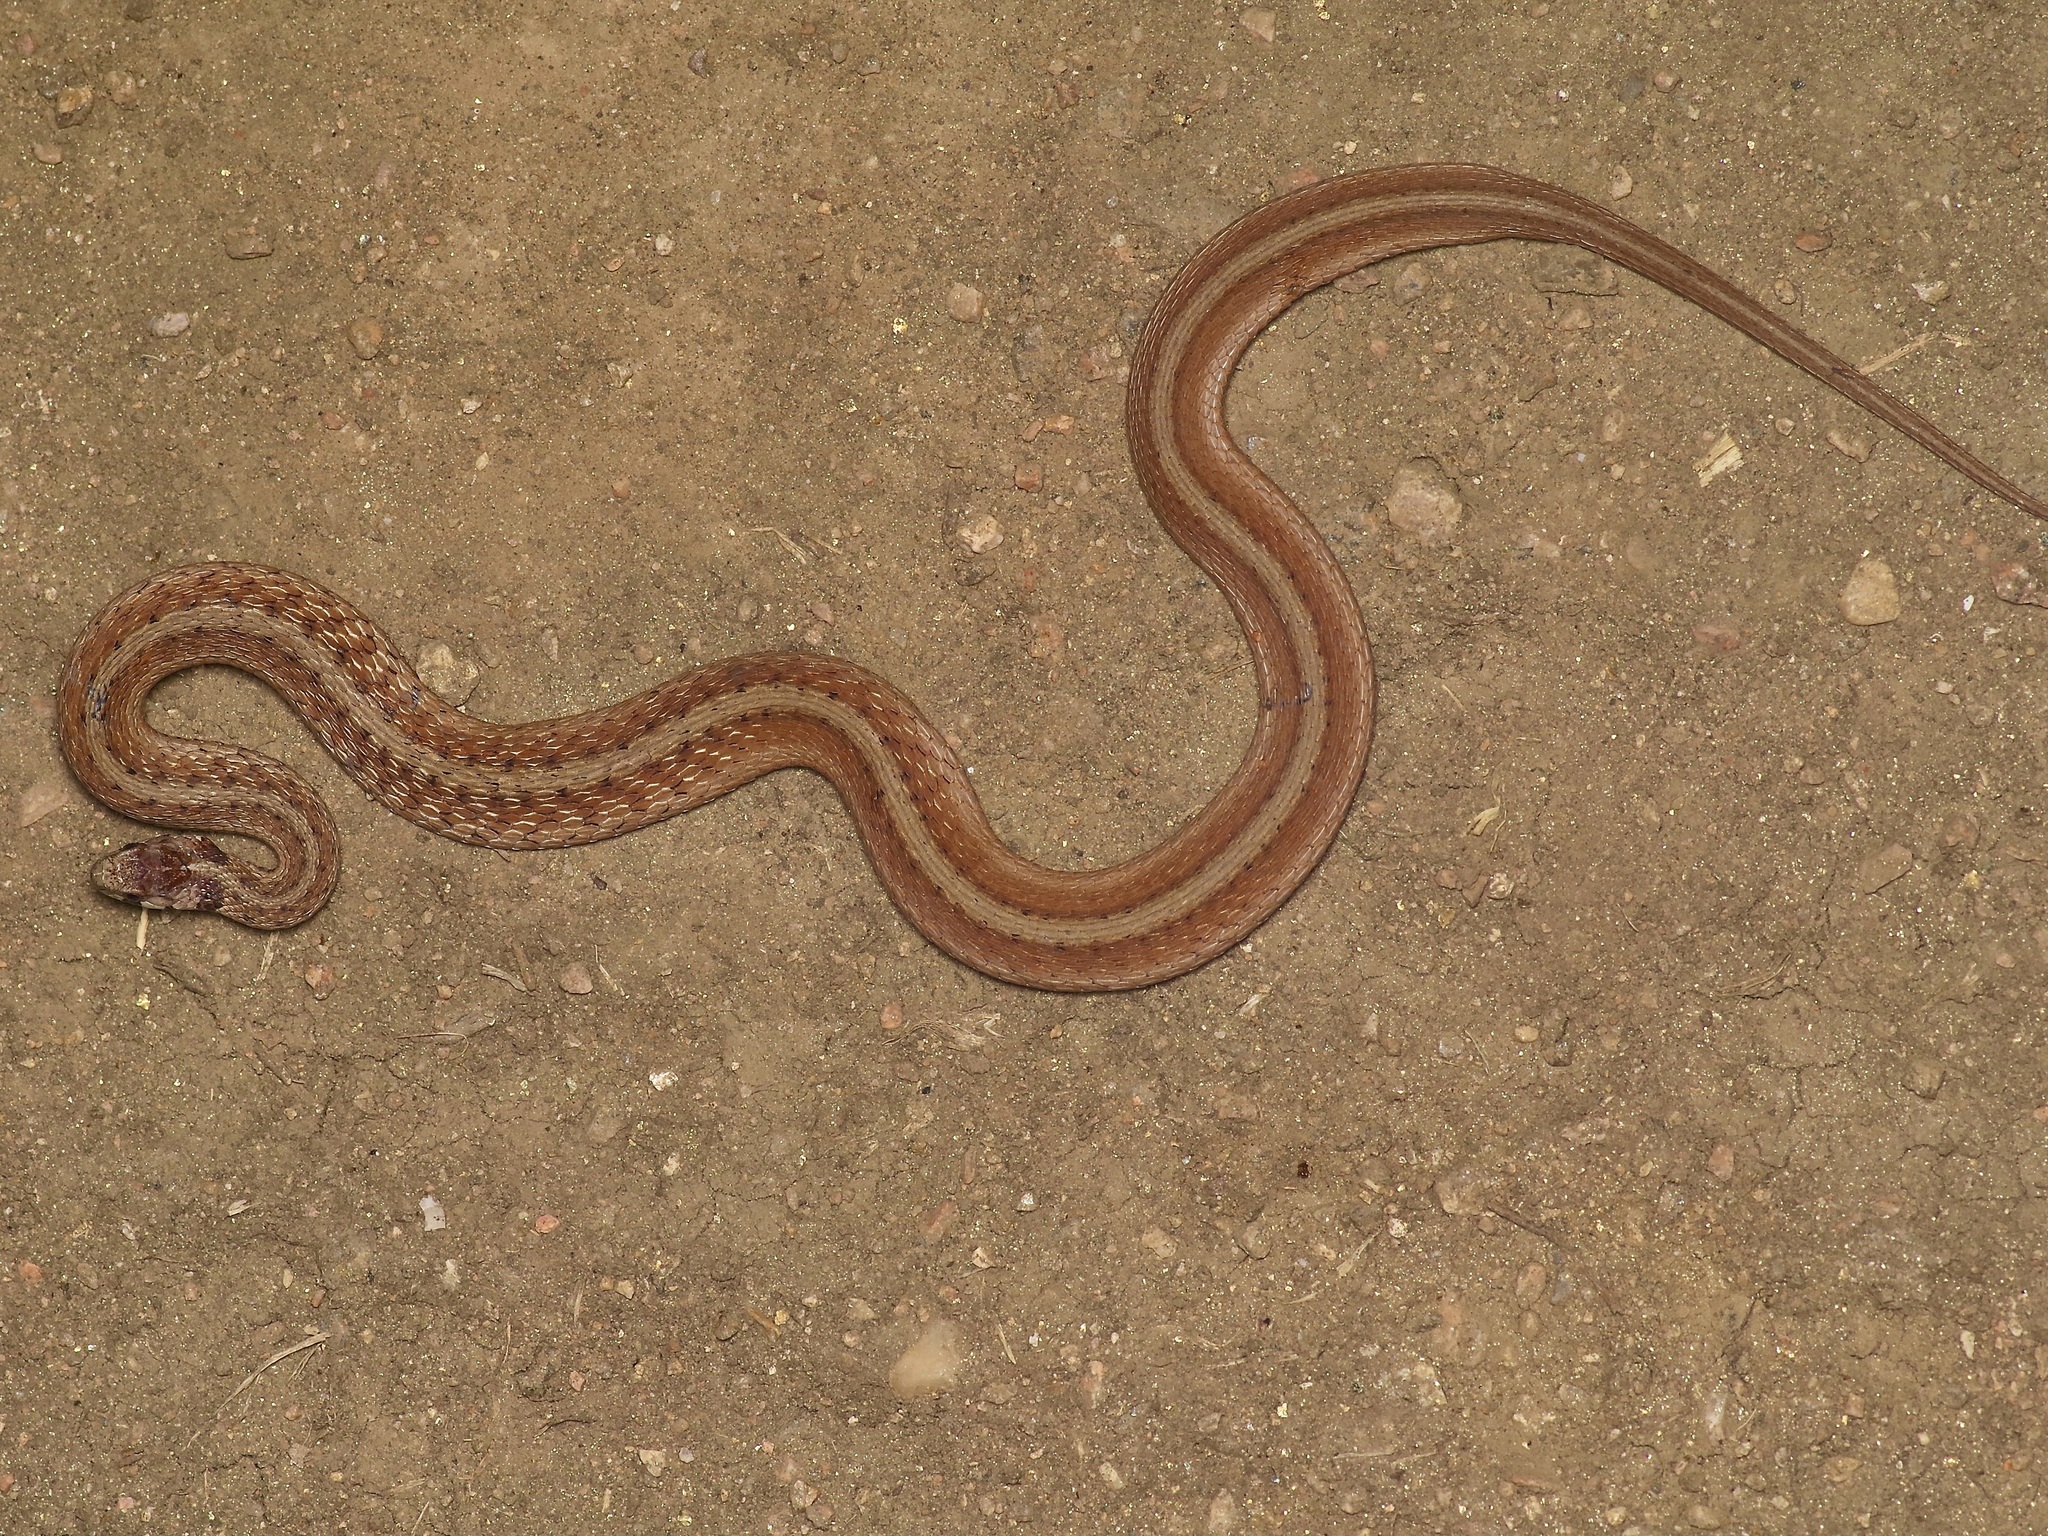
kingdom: Animalia
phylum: Chordata
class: Squamata
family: Colubridae
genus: Storeria
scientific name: Storeria dekayi
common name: (dekay’s) brown snake
